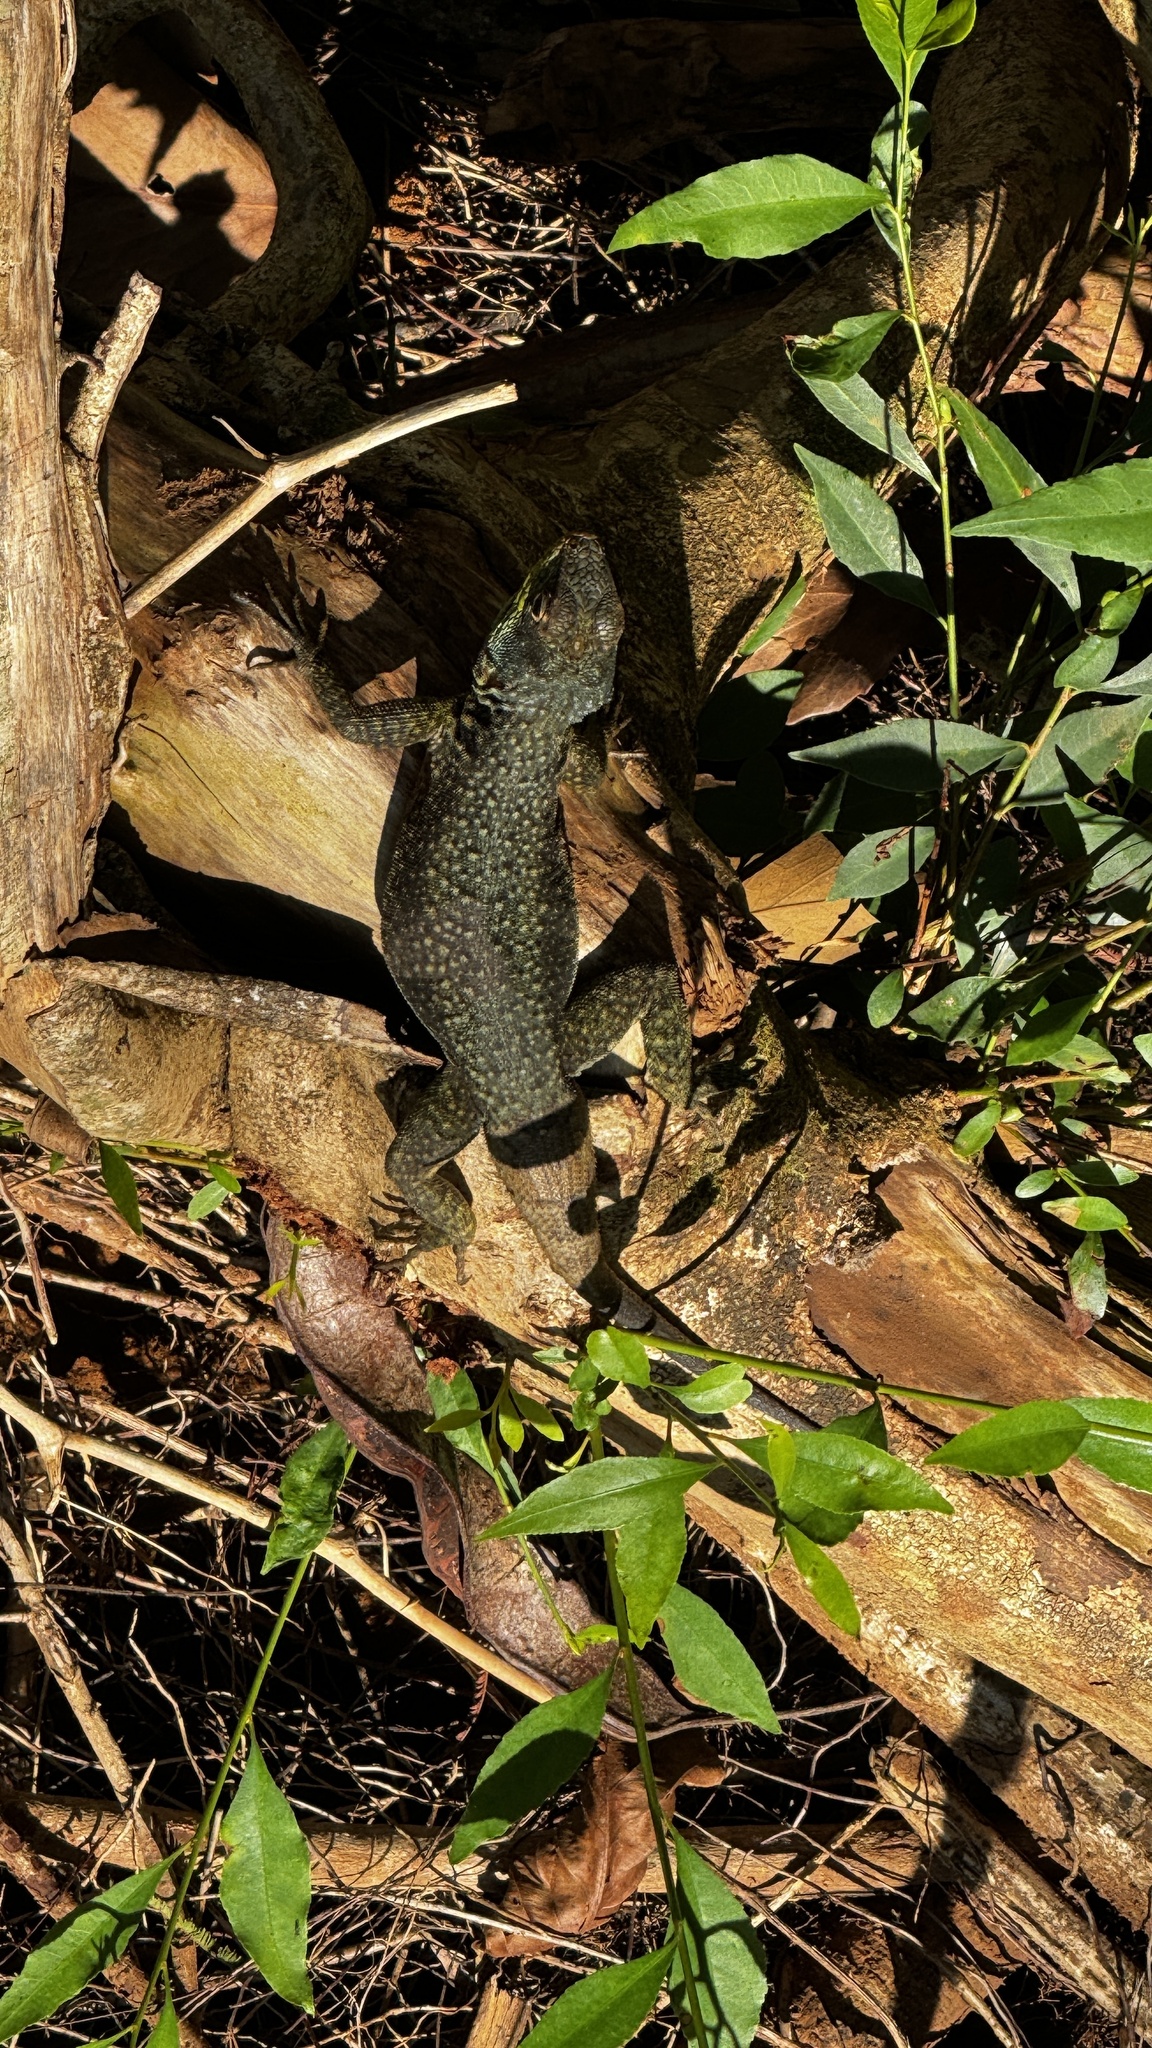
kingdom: Animalia
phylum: Chordata
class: Squamata
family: Tropiduridae
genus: Tropidurus
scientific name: Tropidurus catalanensis
